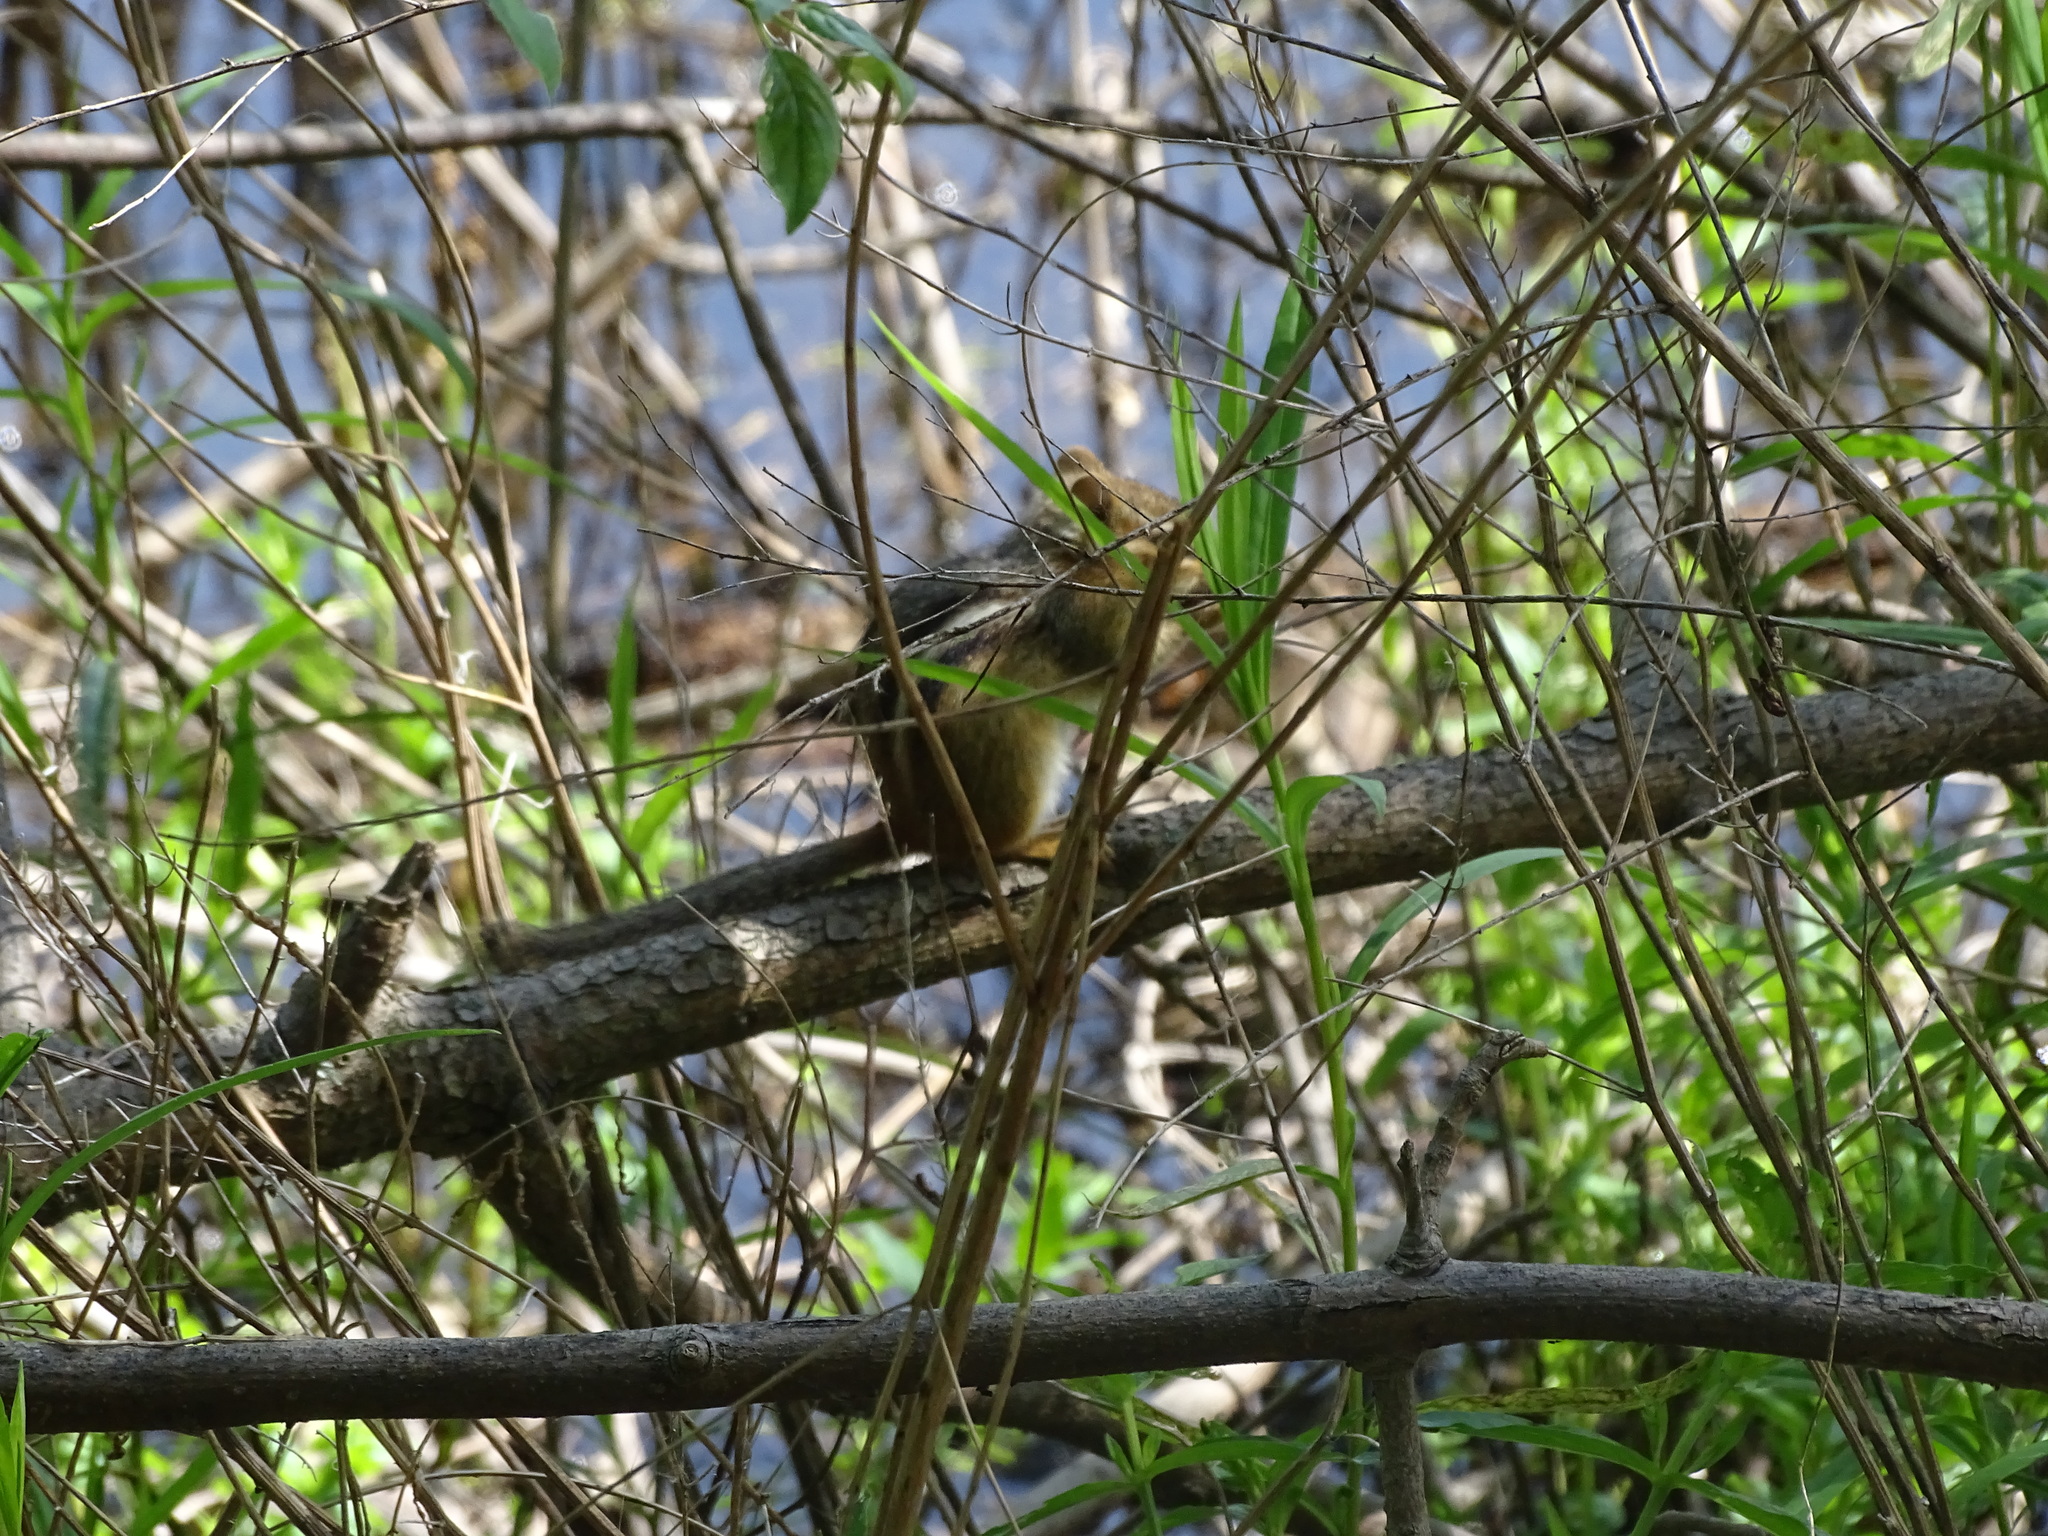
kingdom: Animalia
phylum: Chordata
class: Mammalia
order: Rodentia
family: Sciuridae
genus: Tamias
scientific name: Tamias striatus
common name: Eastern chipmunk
